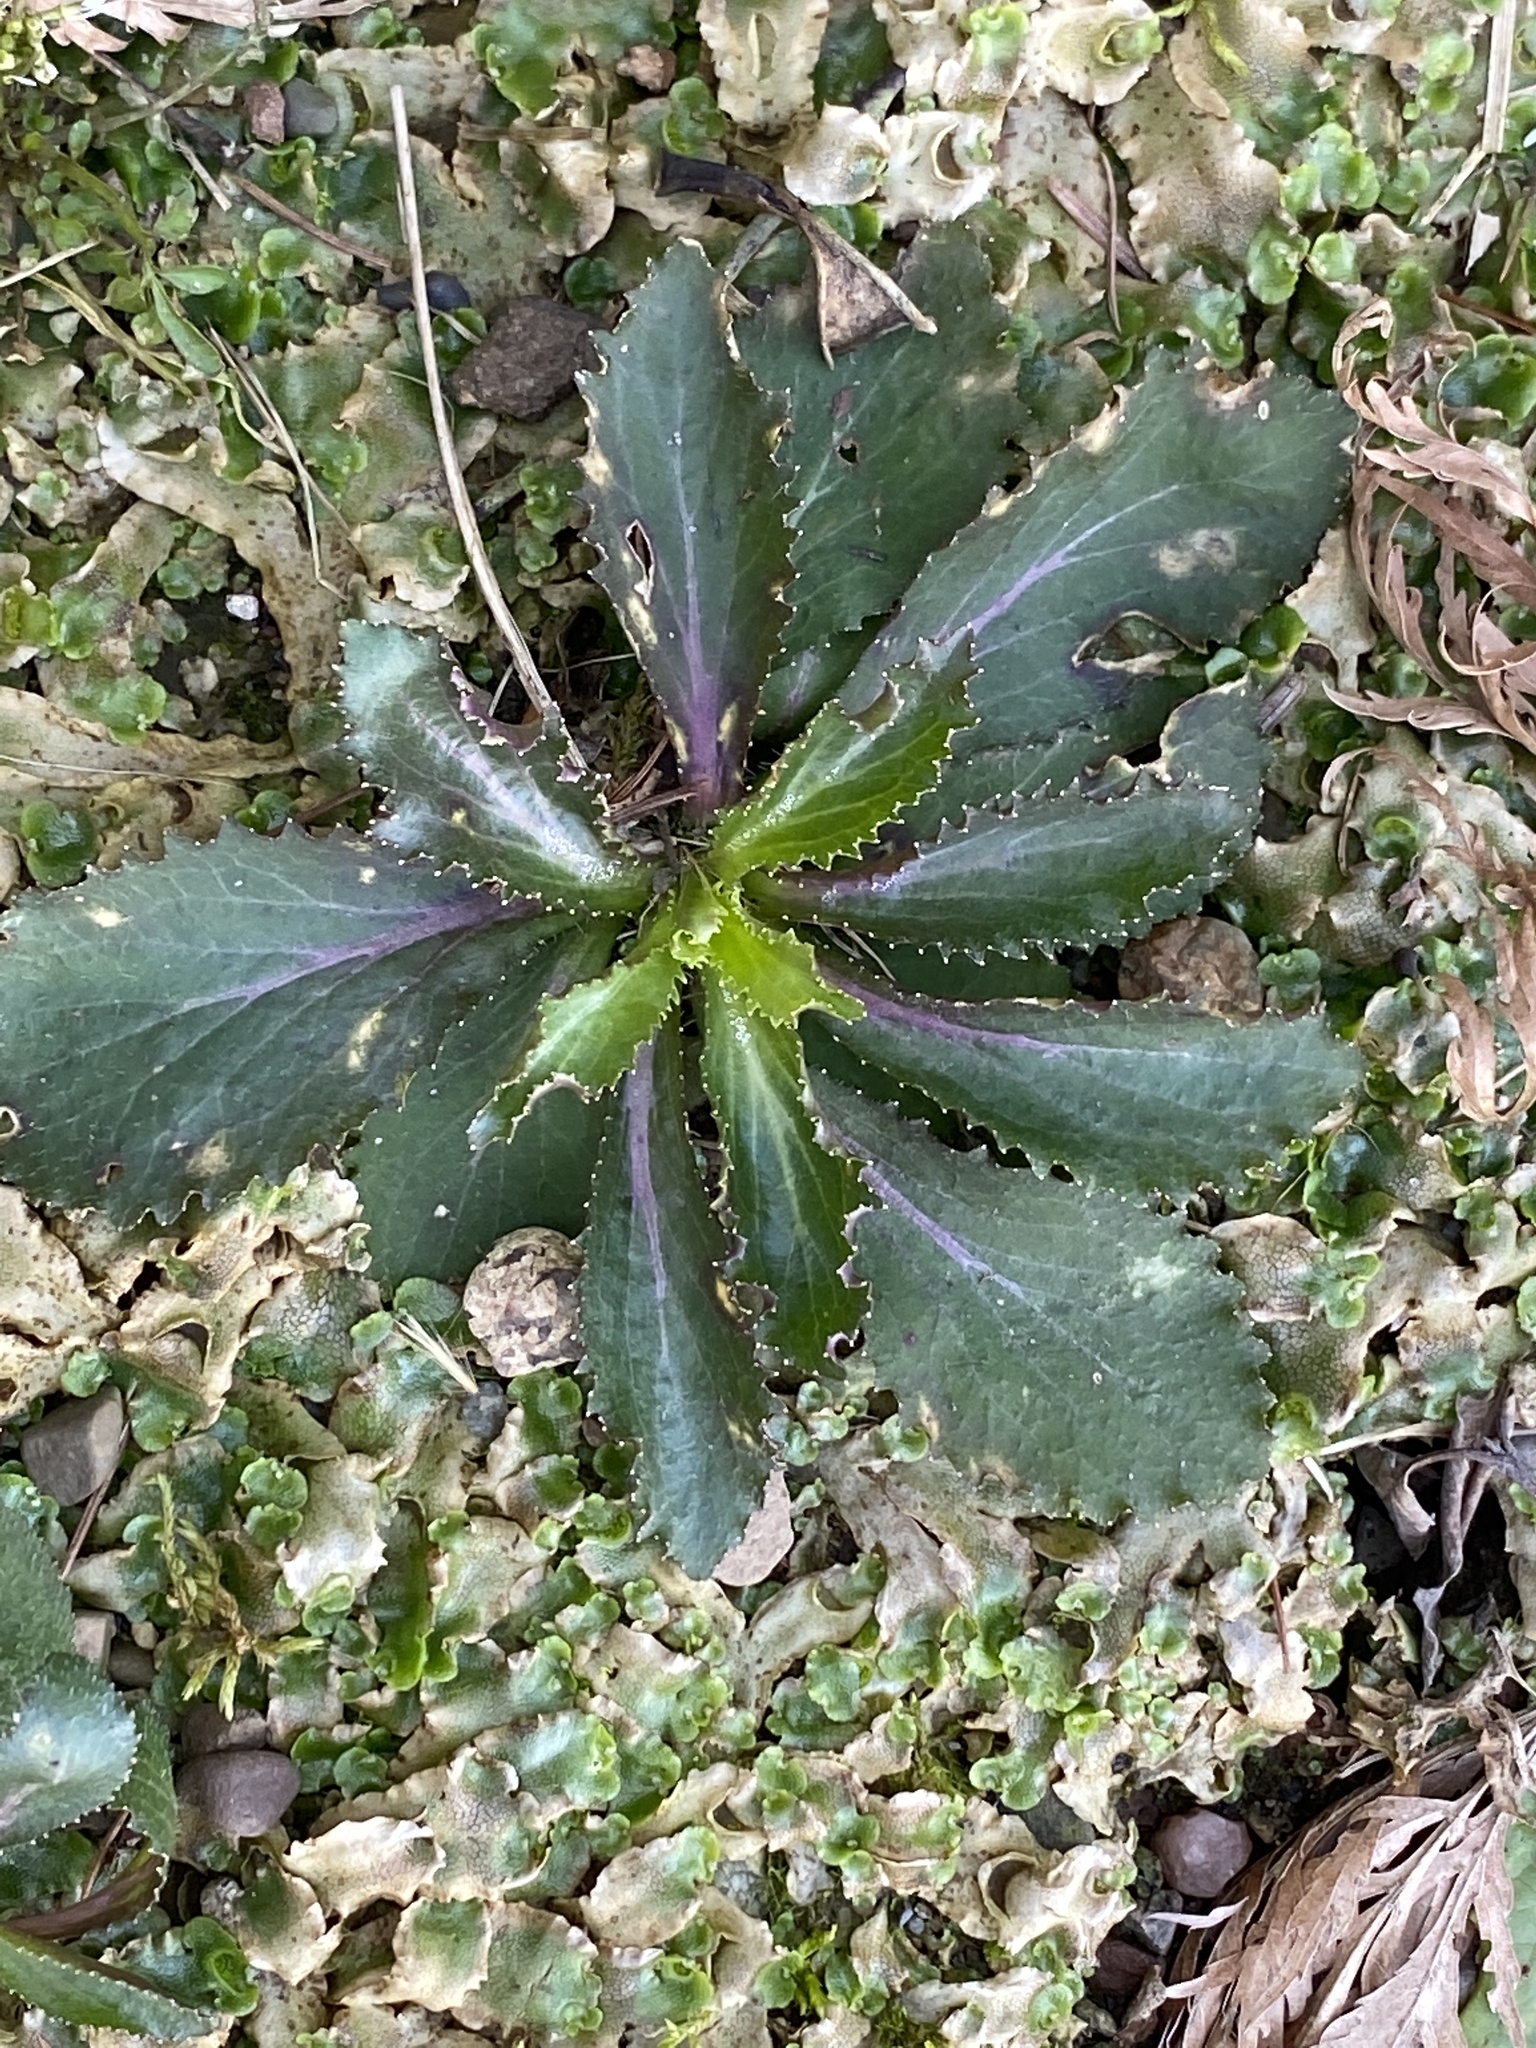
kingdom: Plantae
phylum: Tracheophyta
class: Magnoliopsida
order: Asterales
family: Campanulaceae
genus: Lobelia
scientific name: Lobelia inflata
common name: Indian tobacco
